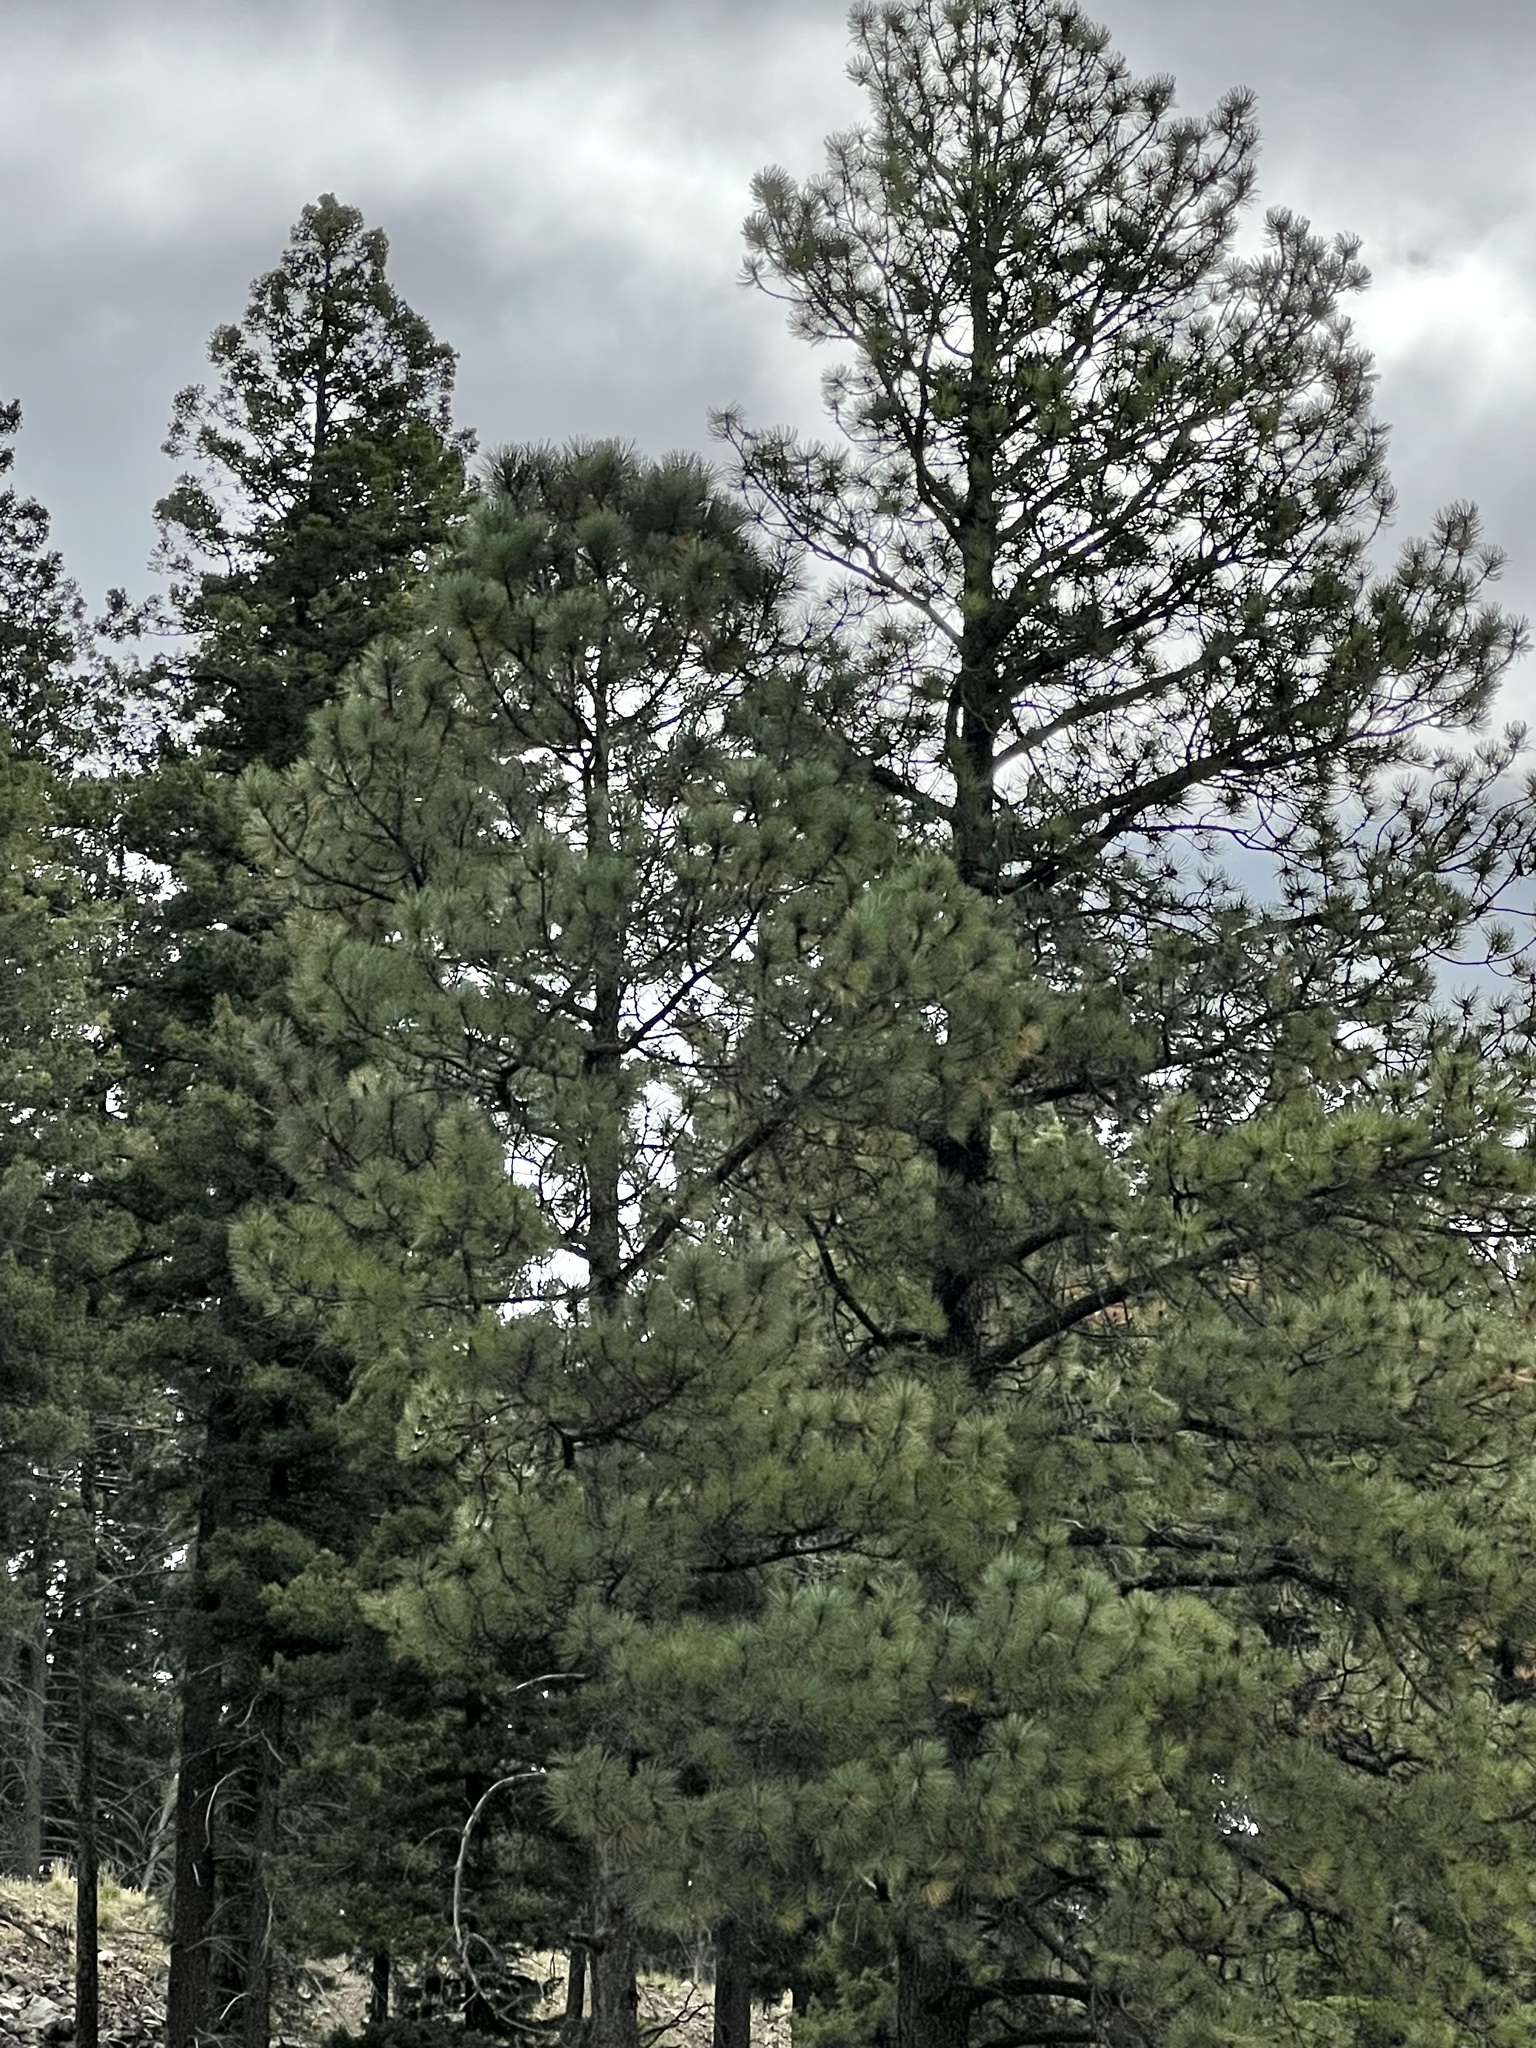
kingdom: Plantae
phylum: Tracheophyta
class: Pinopsida
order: Pinales
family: Pinaceae
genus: Pinus
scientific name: Pinus ponderosa
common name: Western yellow-pine
